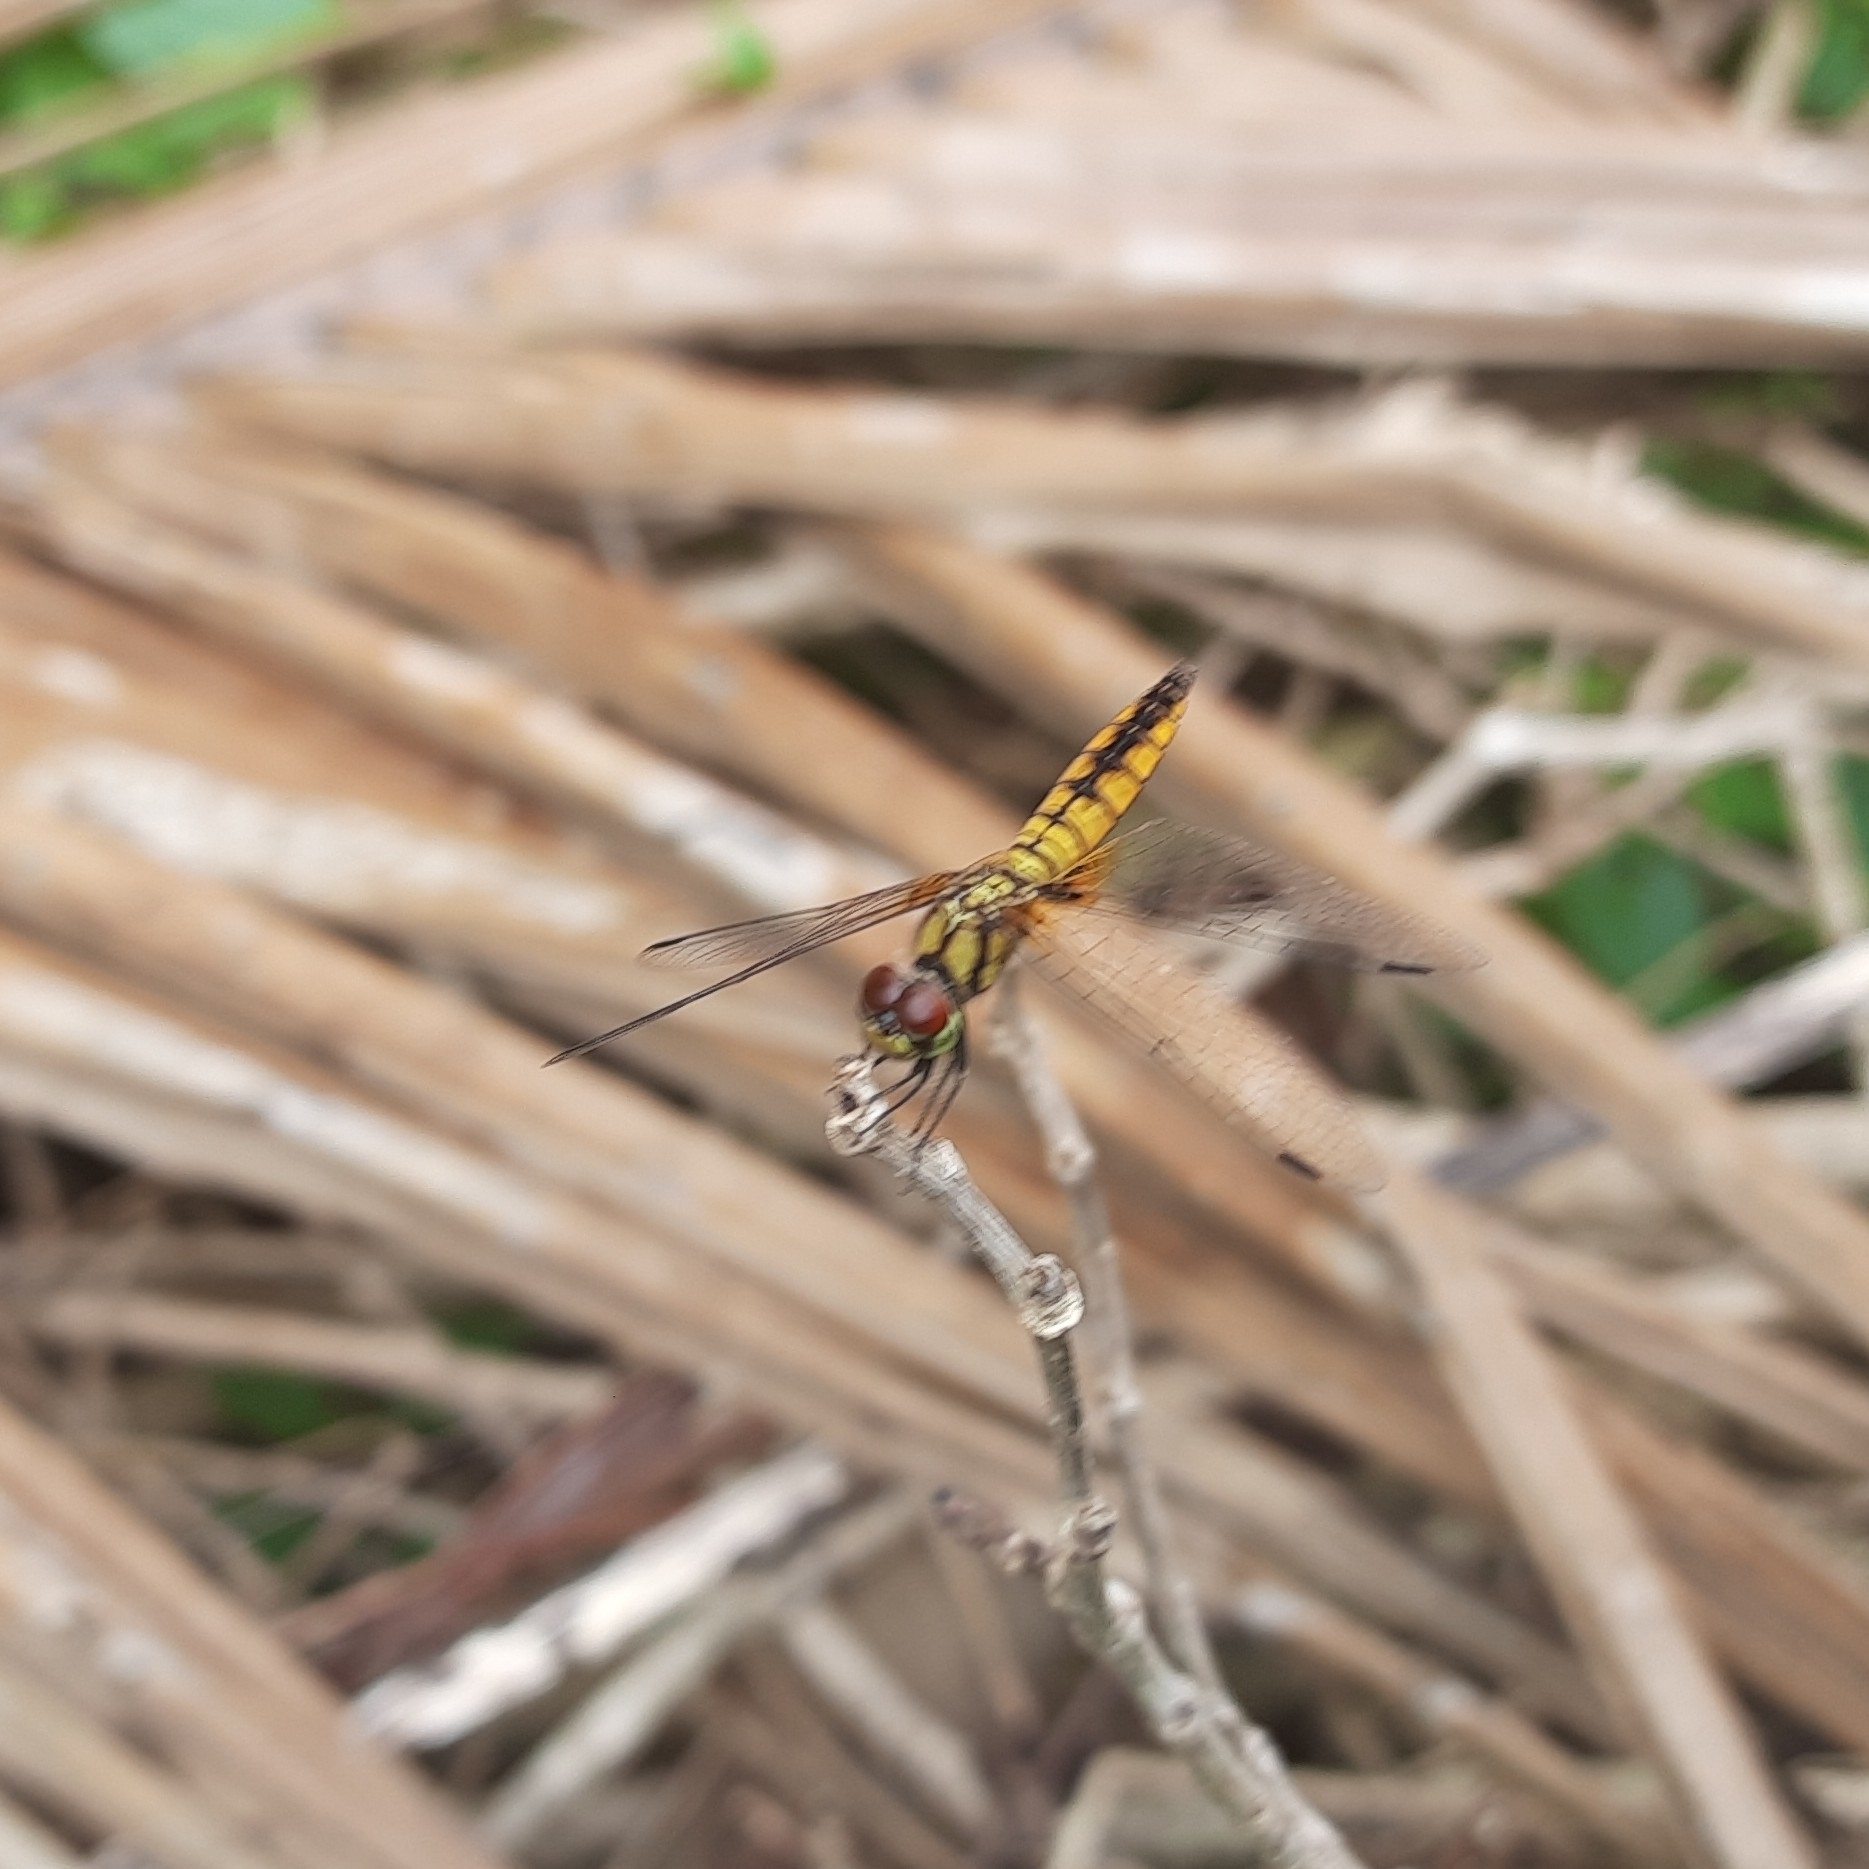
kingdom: Animalia
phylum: Arthropoda
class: Insecta
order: Odonata
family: Libellulidae
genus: Aethriamanta
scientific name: Aethriamanta brevipennis
